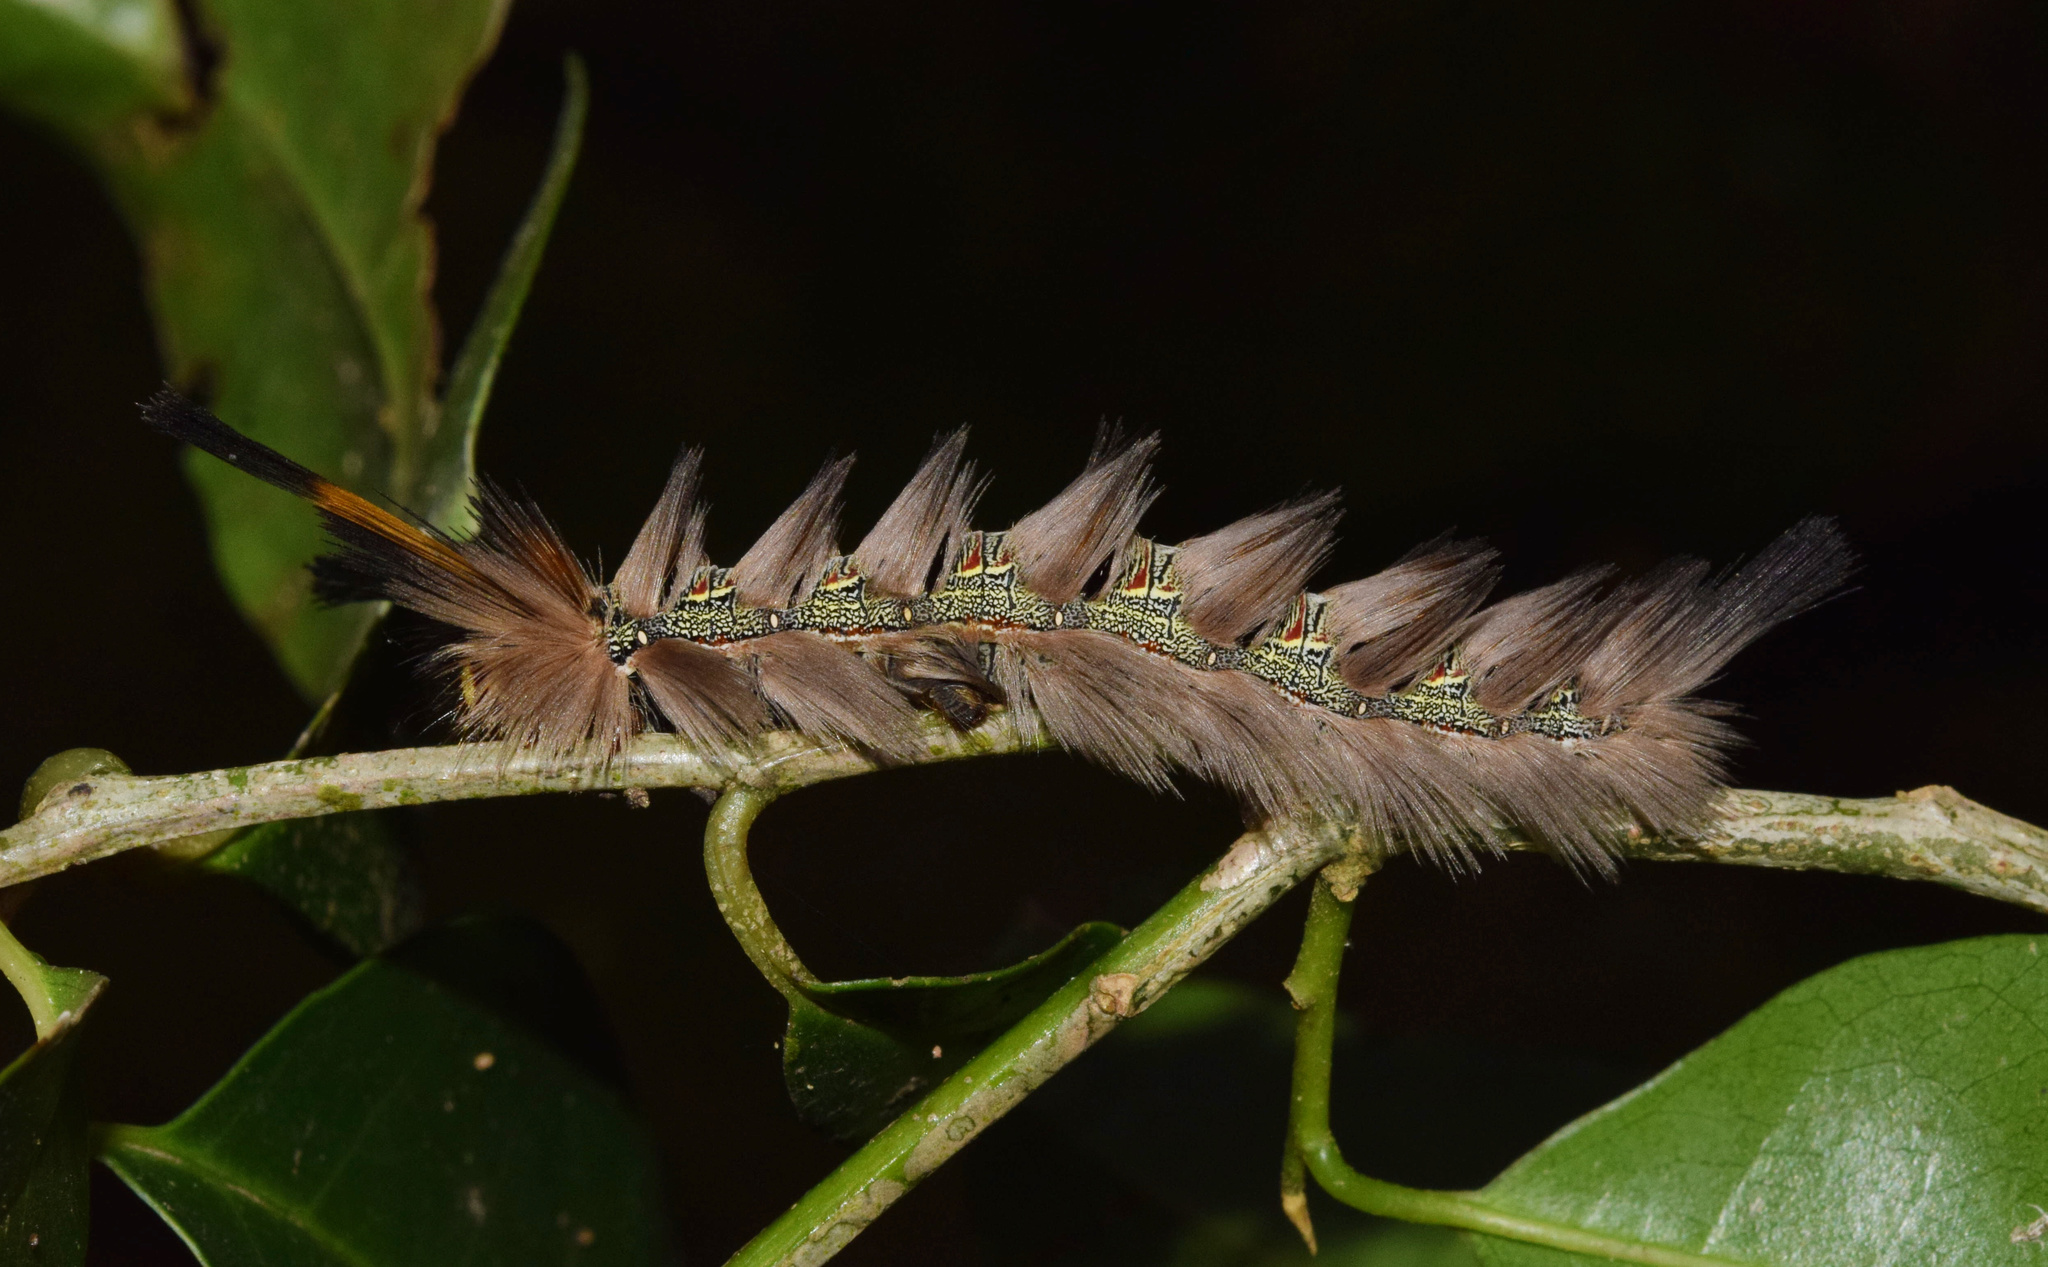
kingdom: Animalia
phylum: Arthropoda
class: Insecta
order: Lepidoptera
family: Eupterotidae
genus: Lichenopteryx
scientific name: Lichenopteryx despecta
